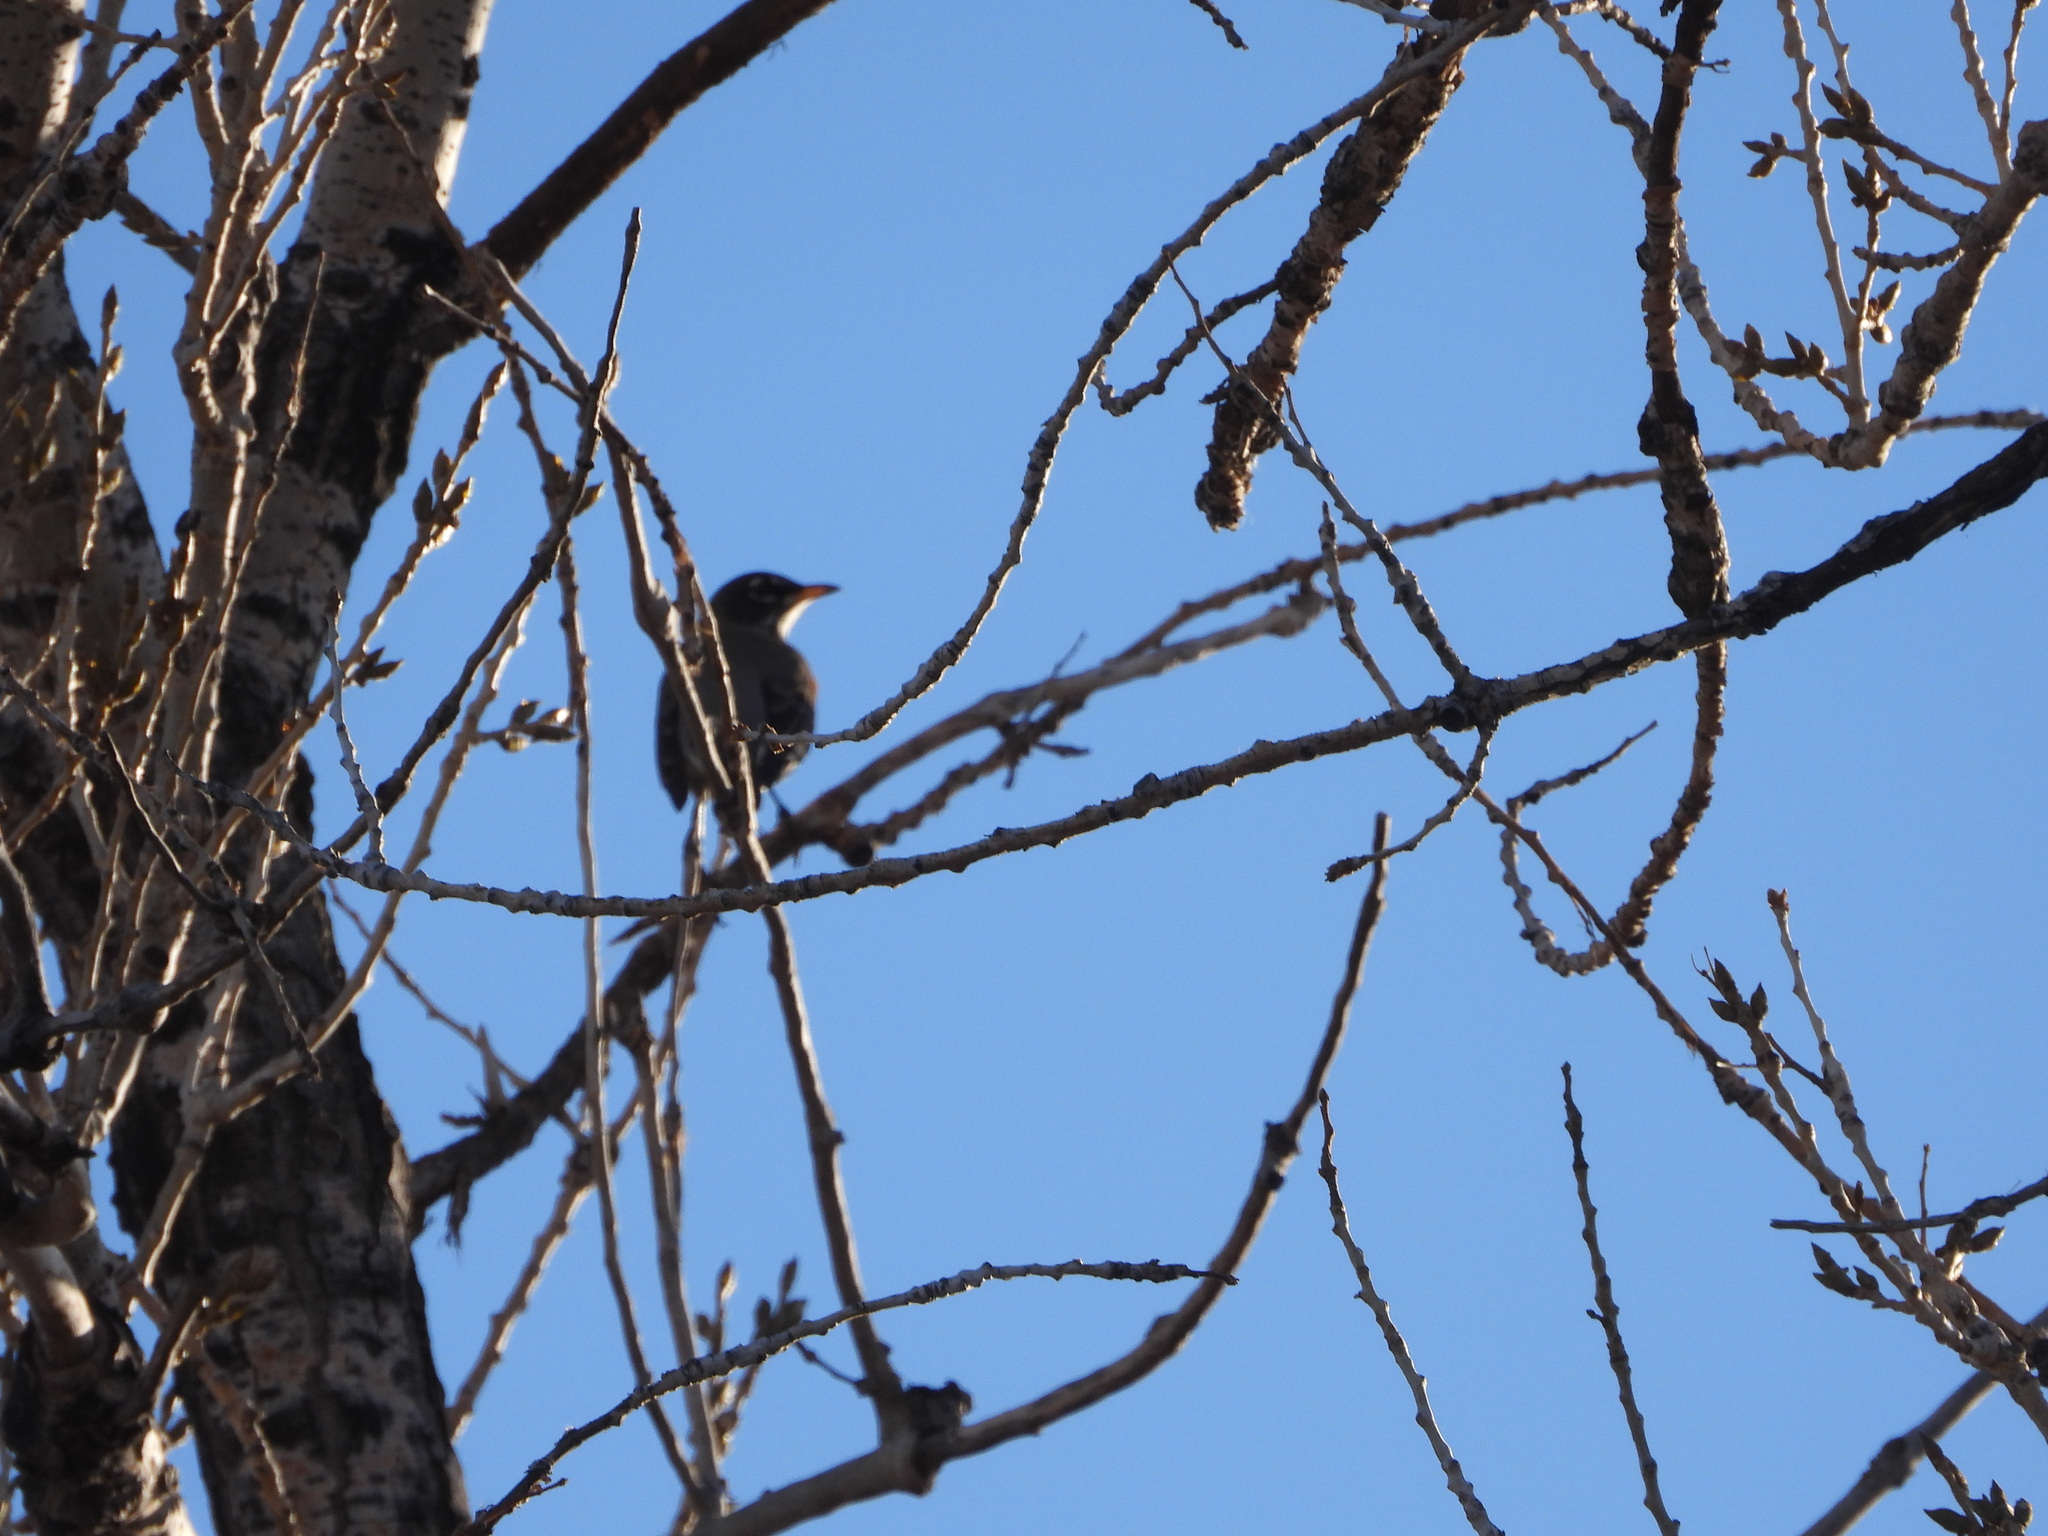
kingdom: Animalia
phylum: Chordata
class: Aves
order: Passeriformes
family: Turdidae
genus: Turdus
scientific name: Turdus migratorius
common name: American robin
